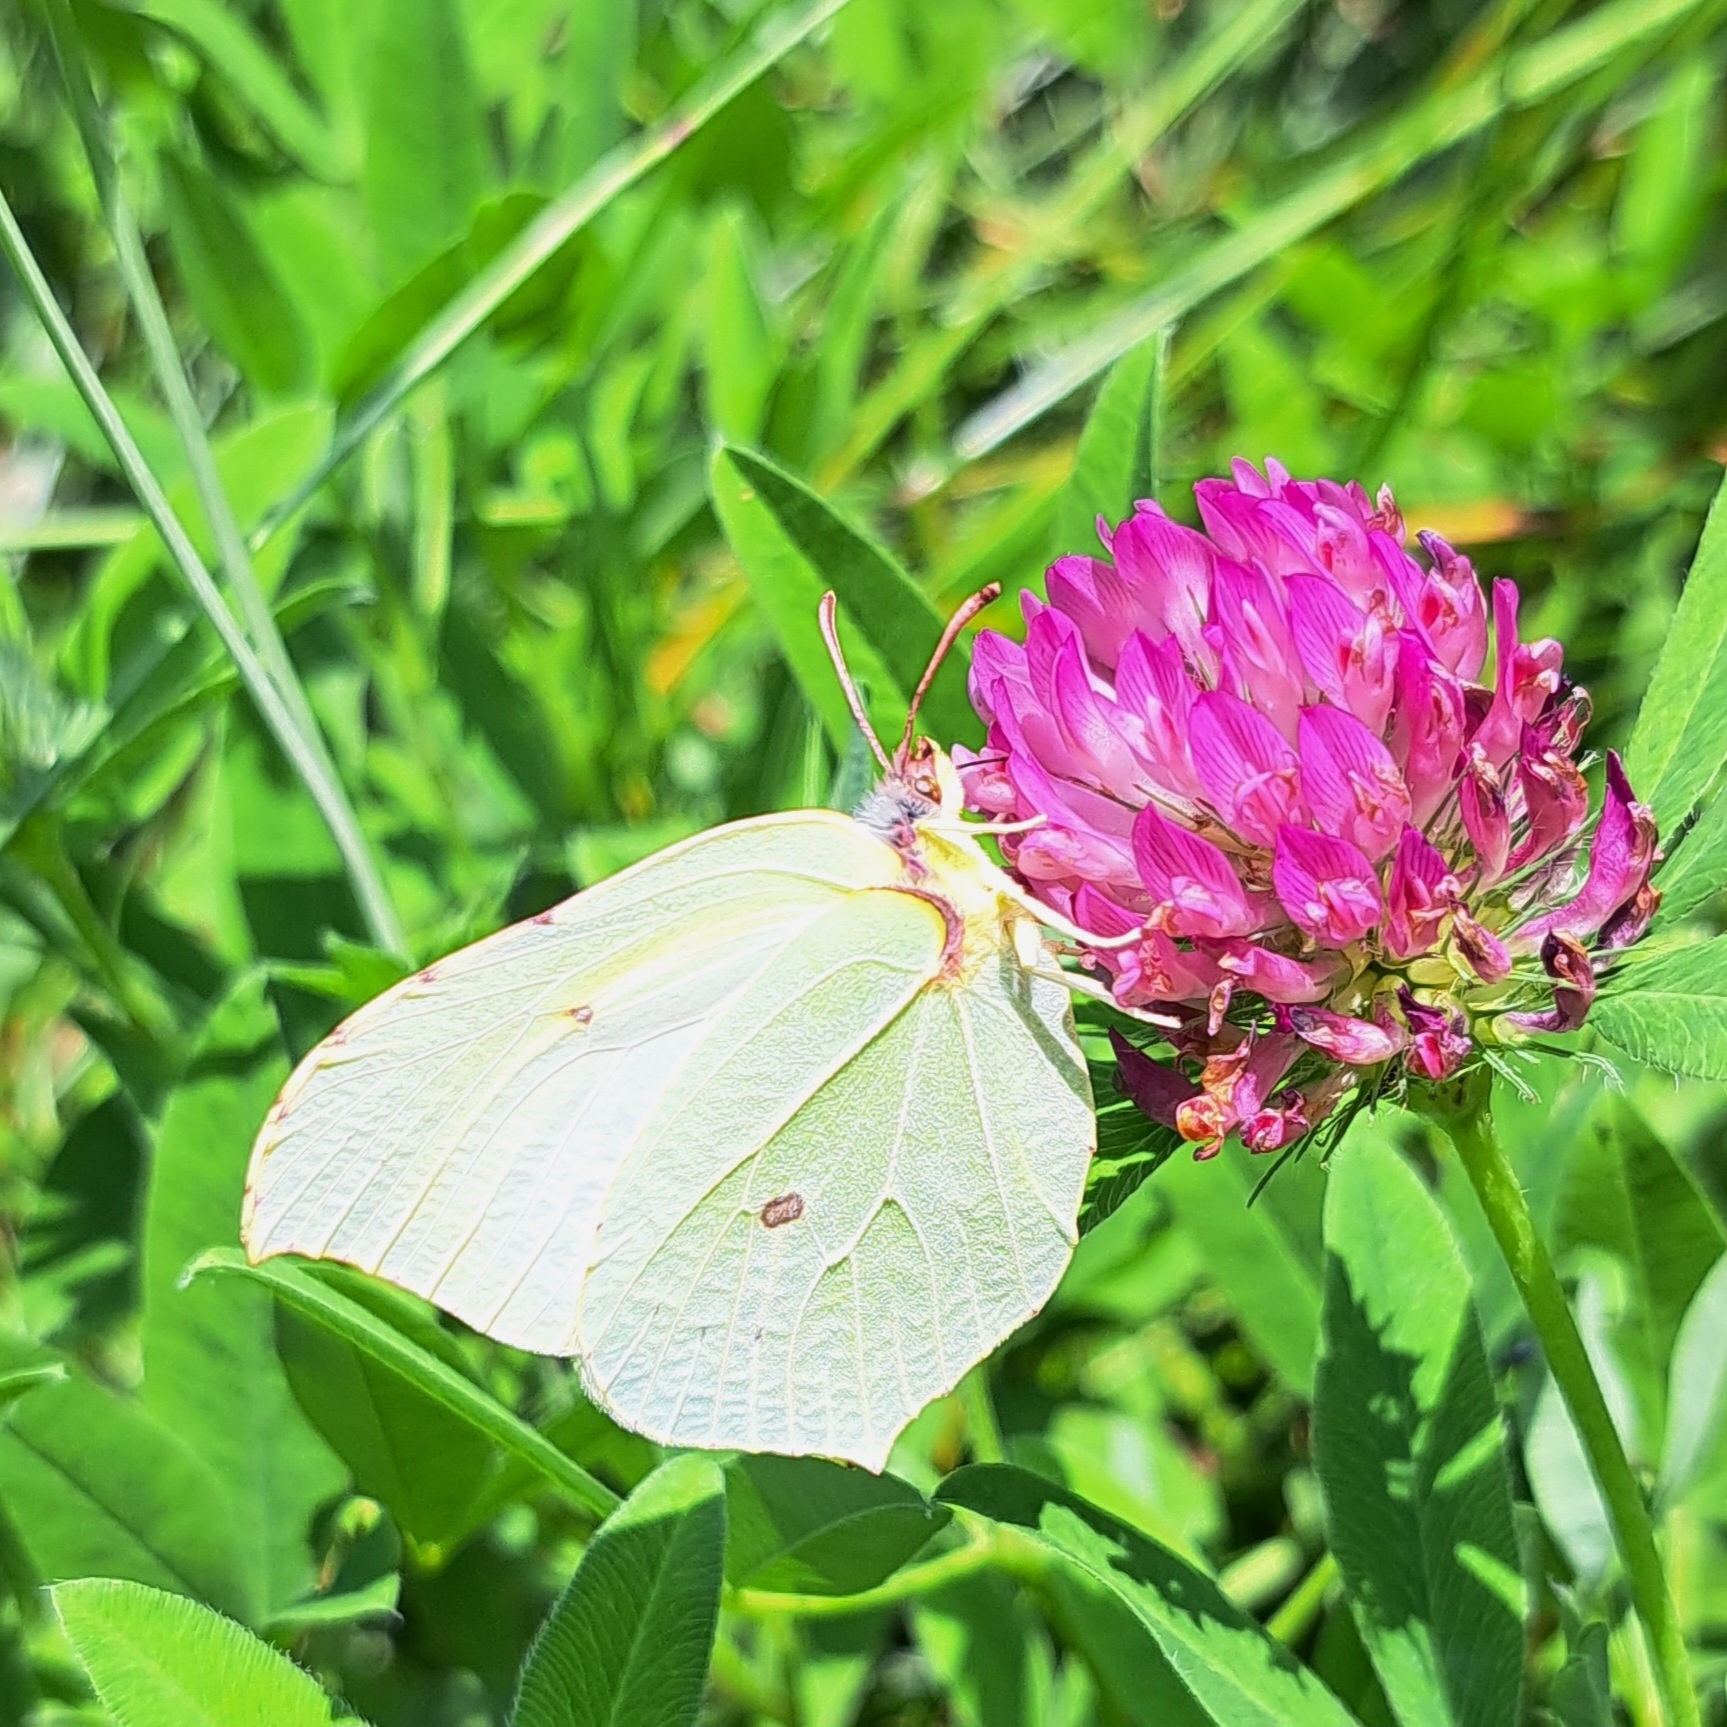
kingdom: Animalia
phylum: Arthropoda
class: Insecta
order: Lepidoptera
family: Pieridae
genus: Gonepteryx
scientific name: Gonepteryx rhamni
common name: Brimstone
